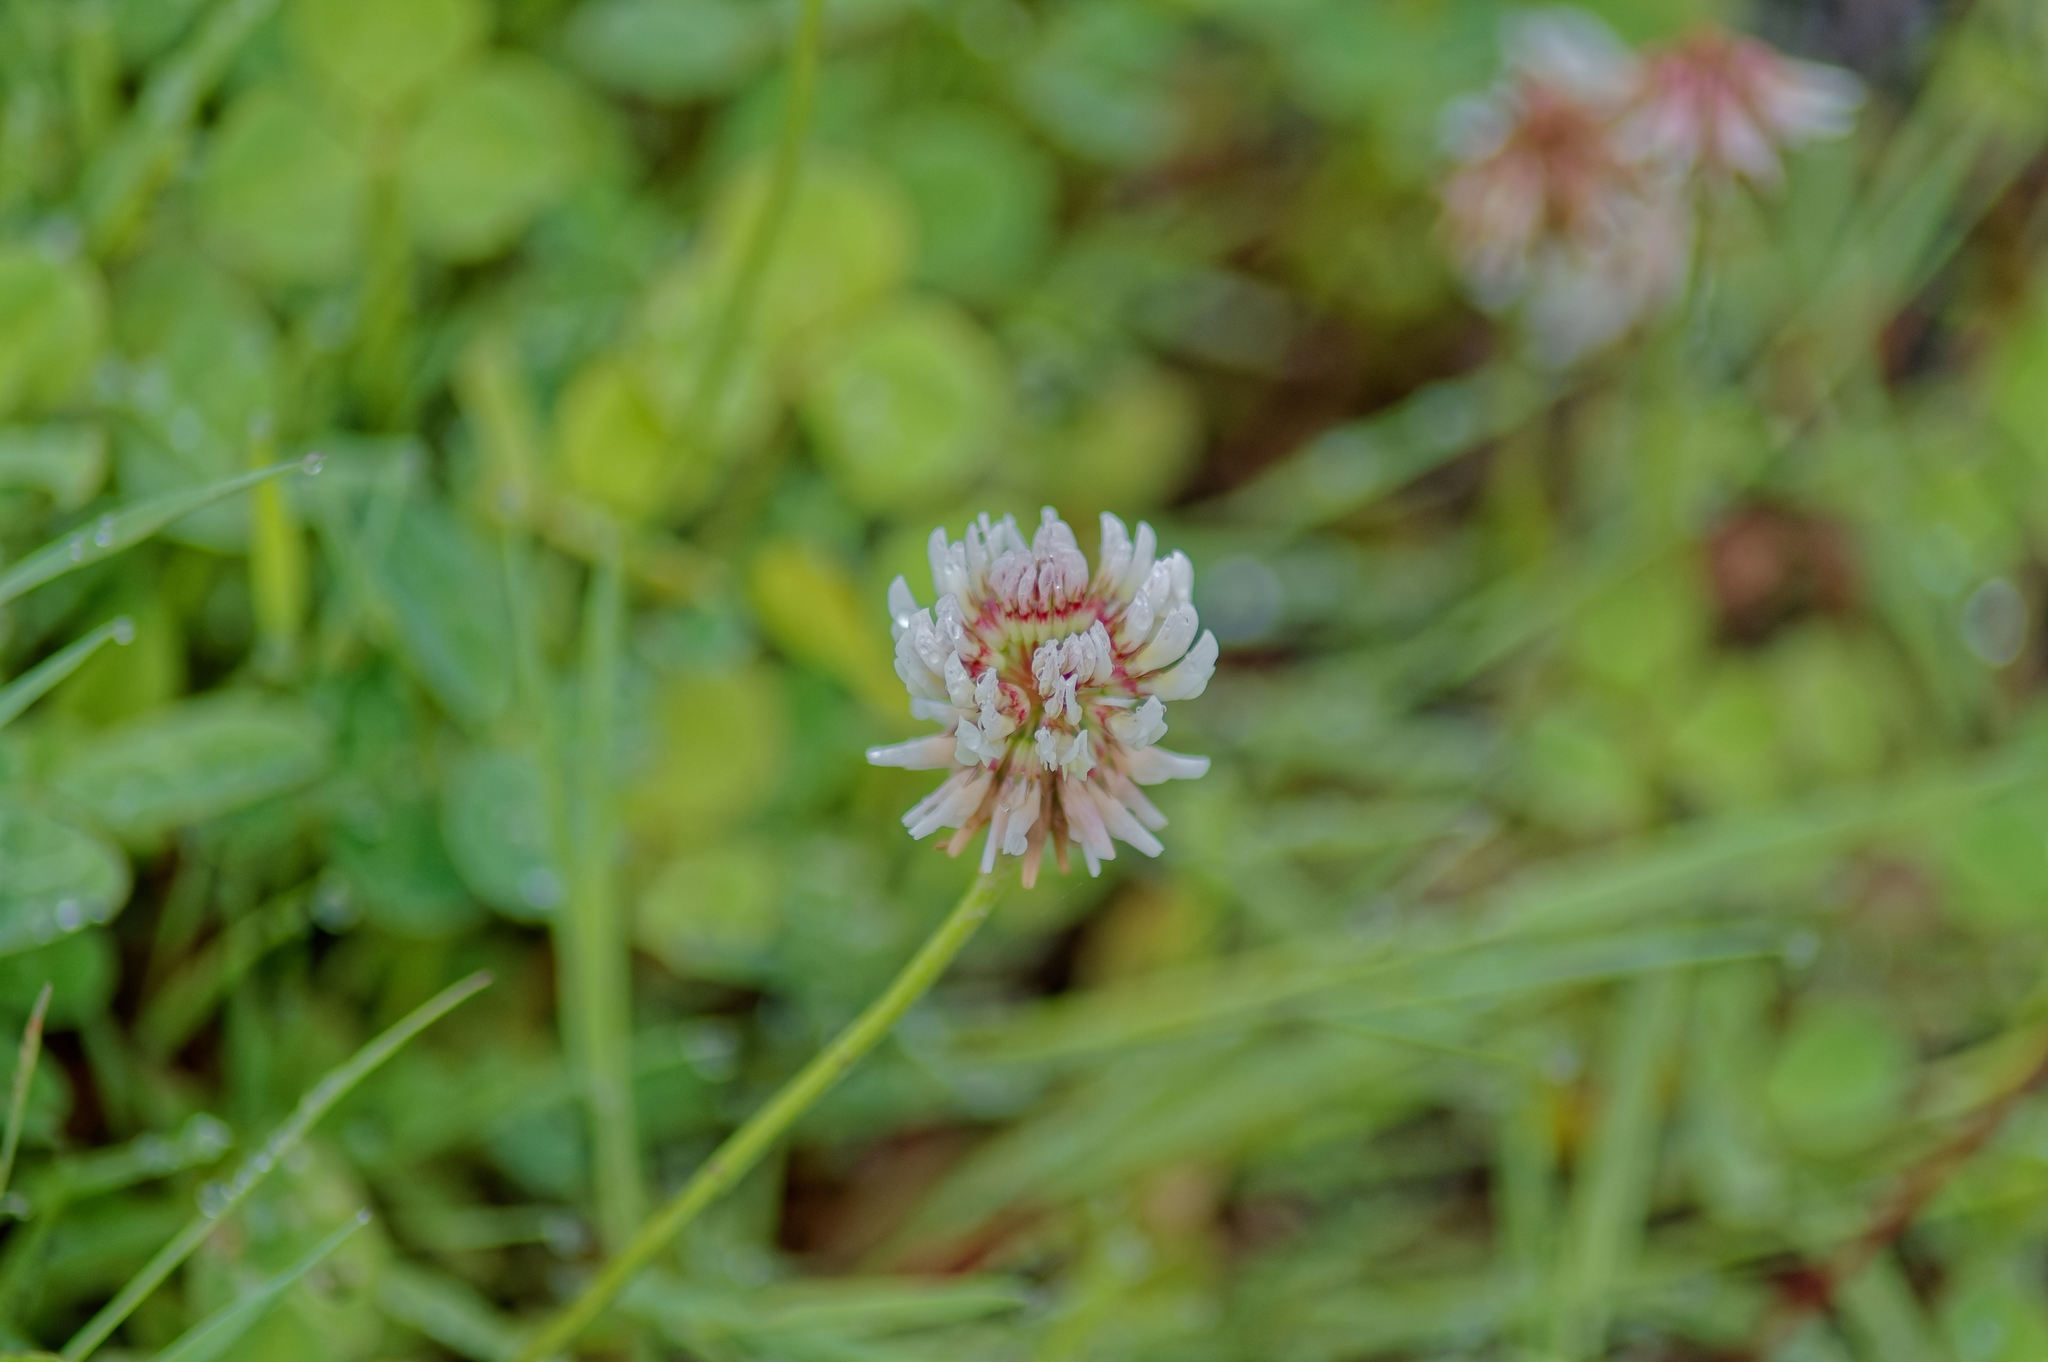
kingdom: Plantae
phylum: Tracheophyta
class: Magnoliopsida
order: Fabales
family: Fabaceae
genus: Trifolium
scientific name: Trifolium repens
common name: White clover
